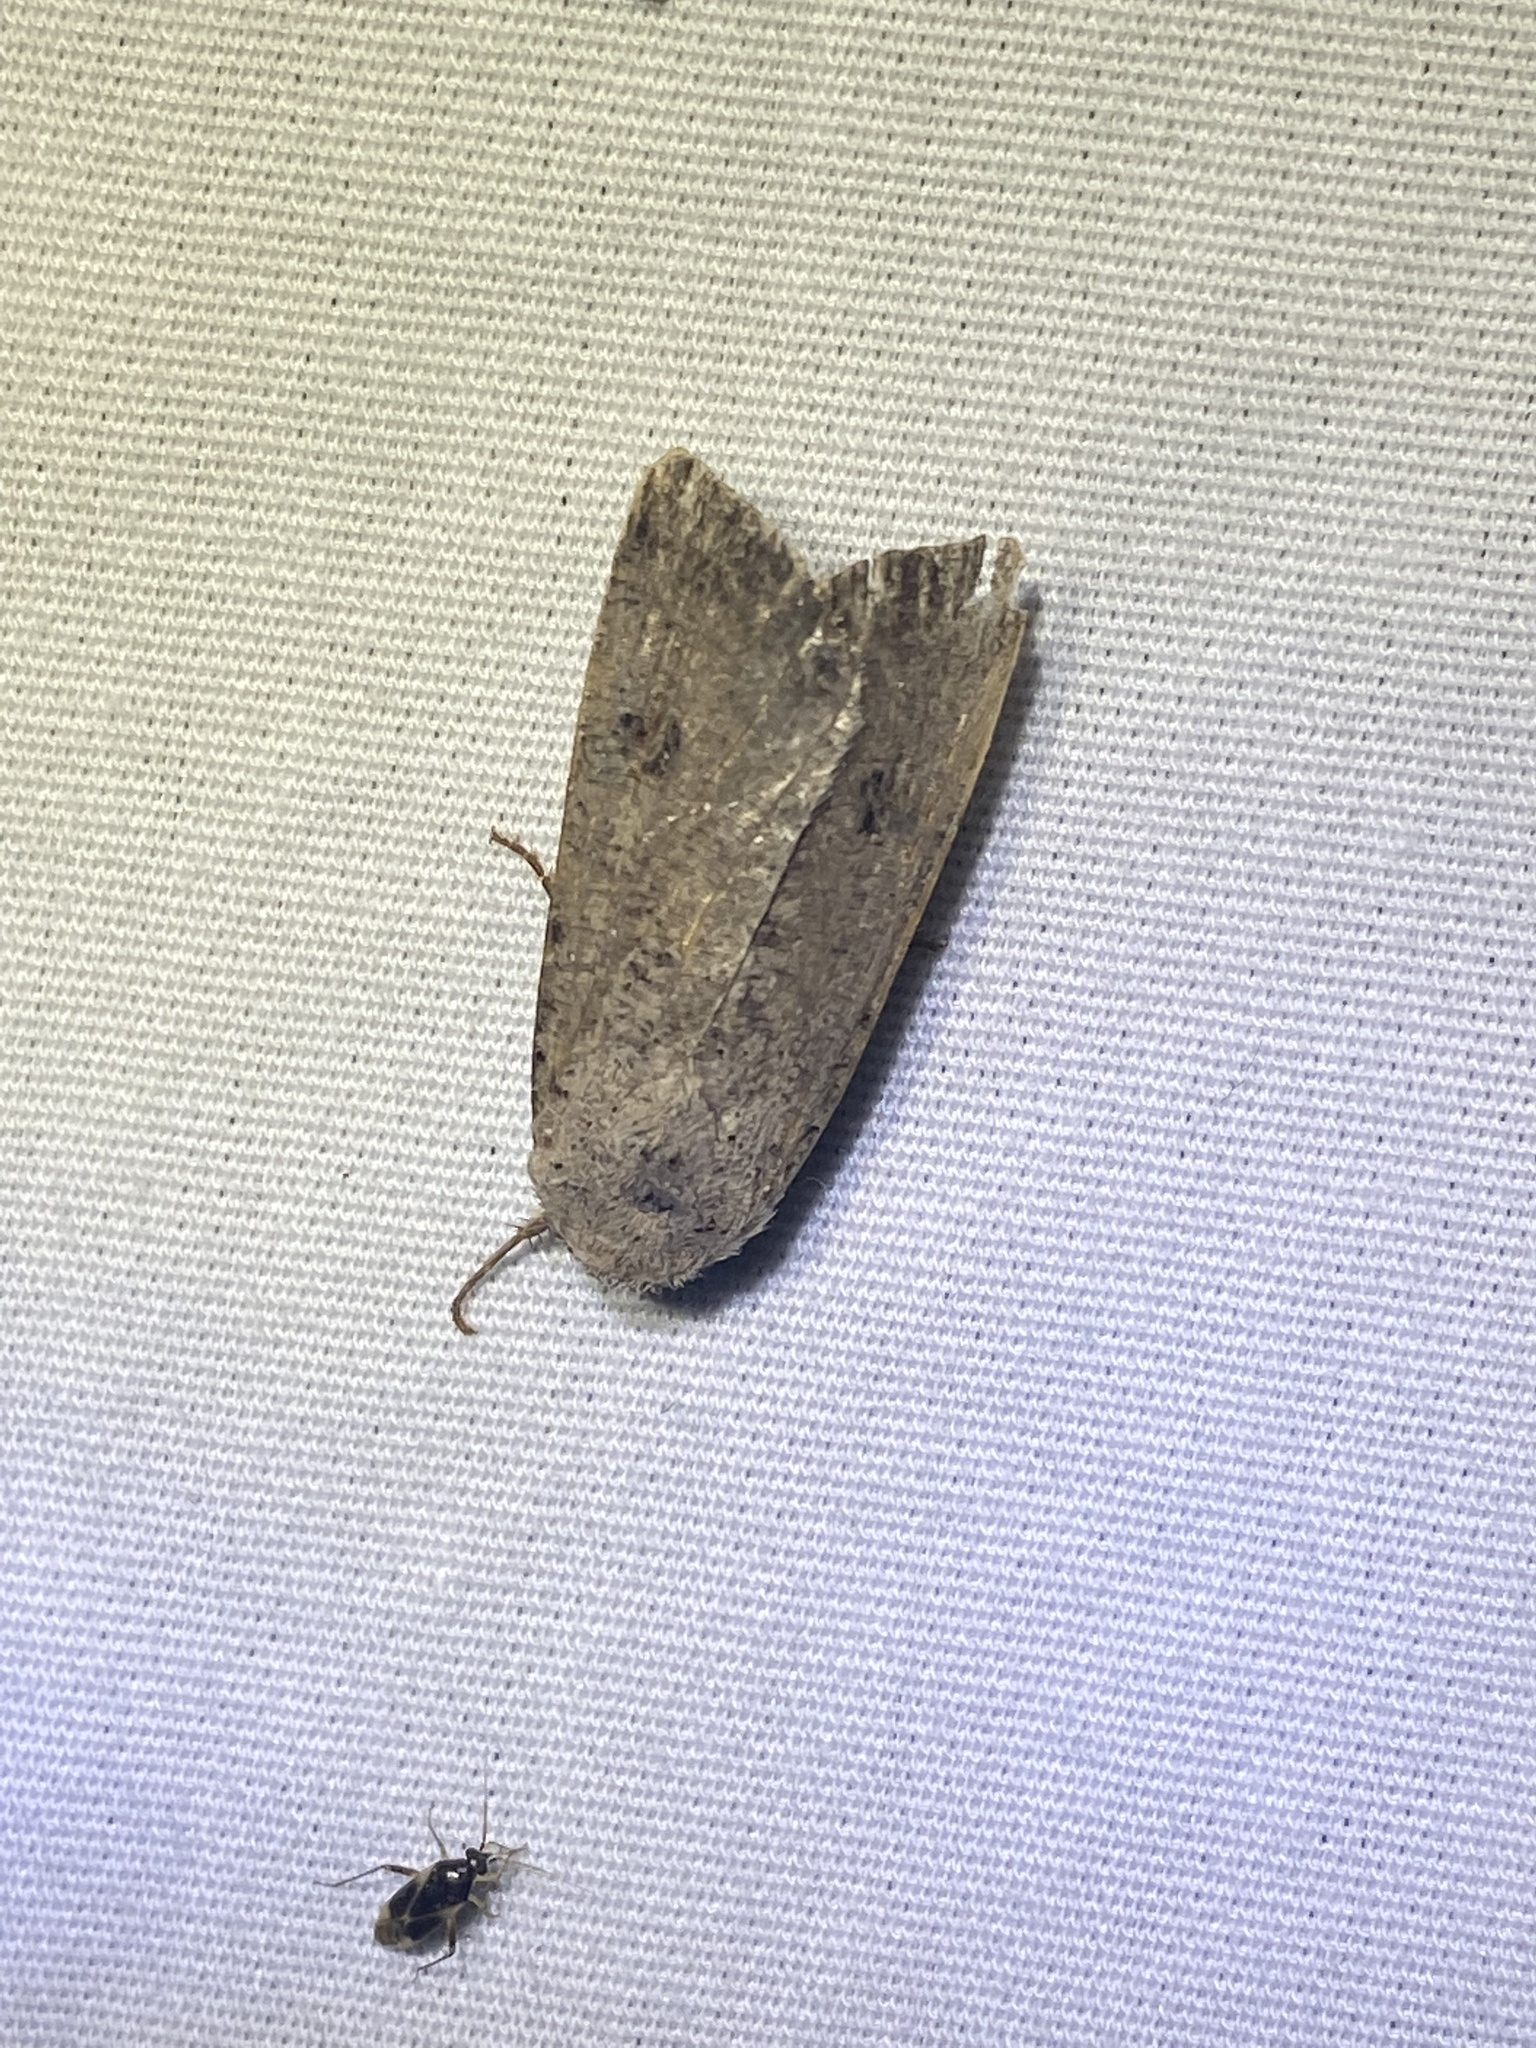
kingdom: Animalia
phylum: Arthropoda
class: Insecta
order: Lepidoptera
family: Noctuidae
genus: Anicla
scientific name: Anicla infecta
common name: Green cutworm
